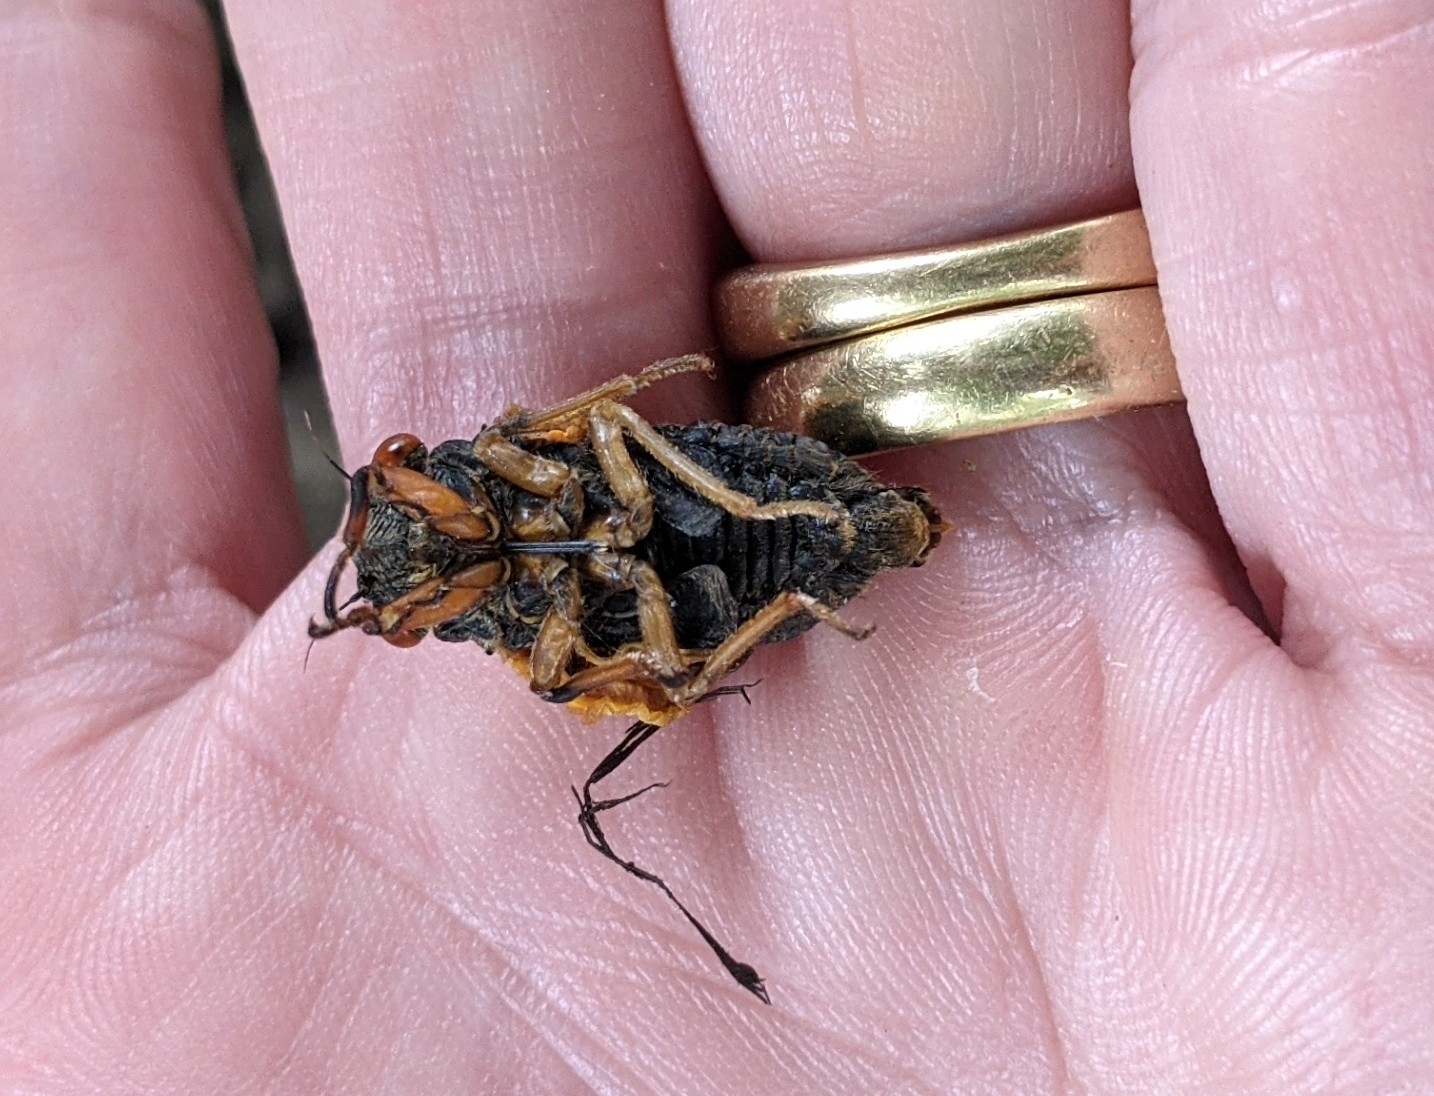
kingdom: Animalia
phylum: Arthropoda
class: Insecta
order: Hemiptera
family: Cicadidae
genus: Magicicada
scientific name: Magicicada cassini
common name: Cassin's 17-year cicada
